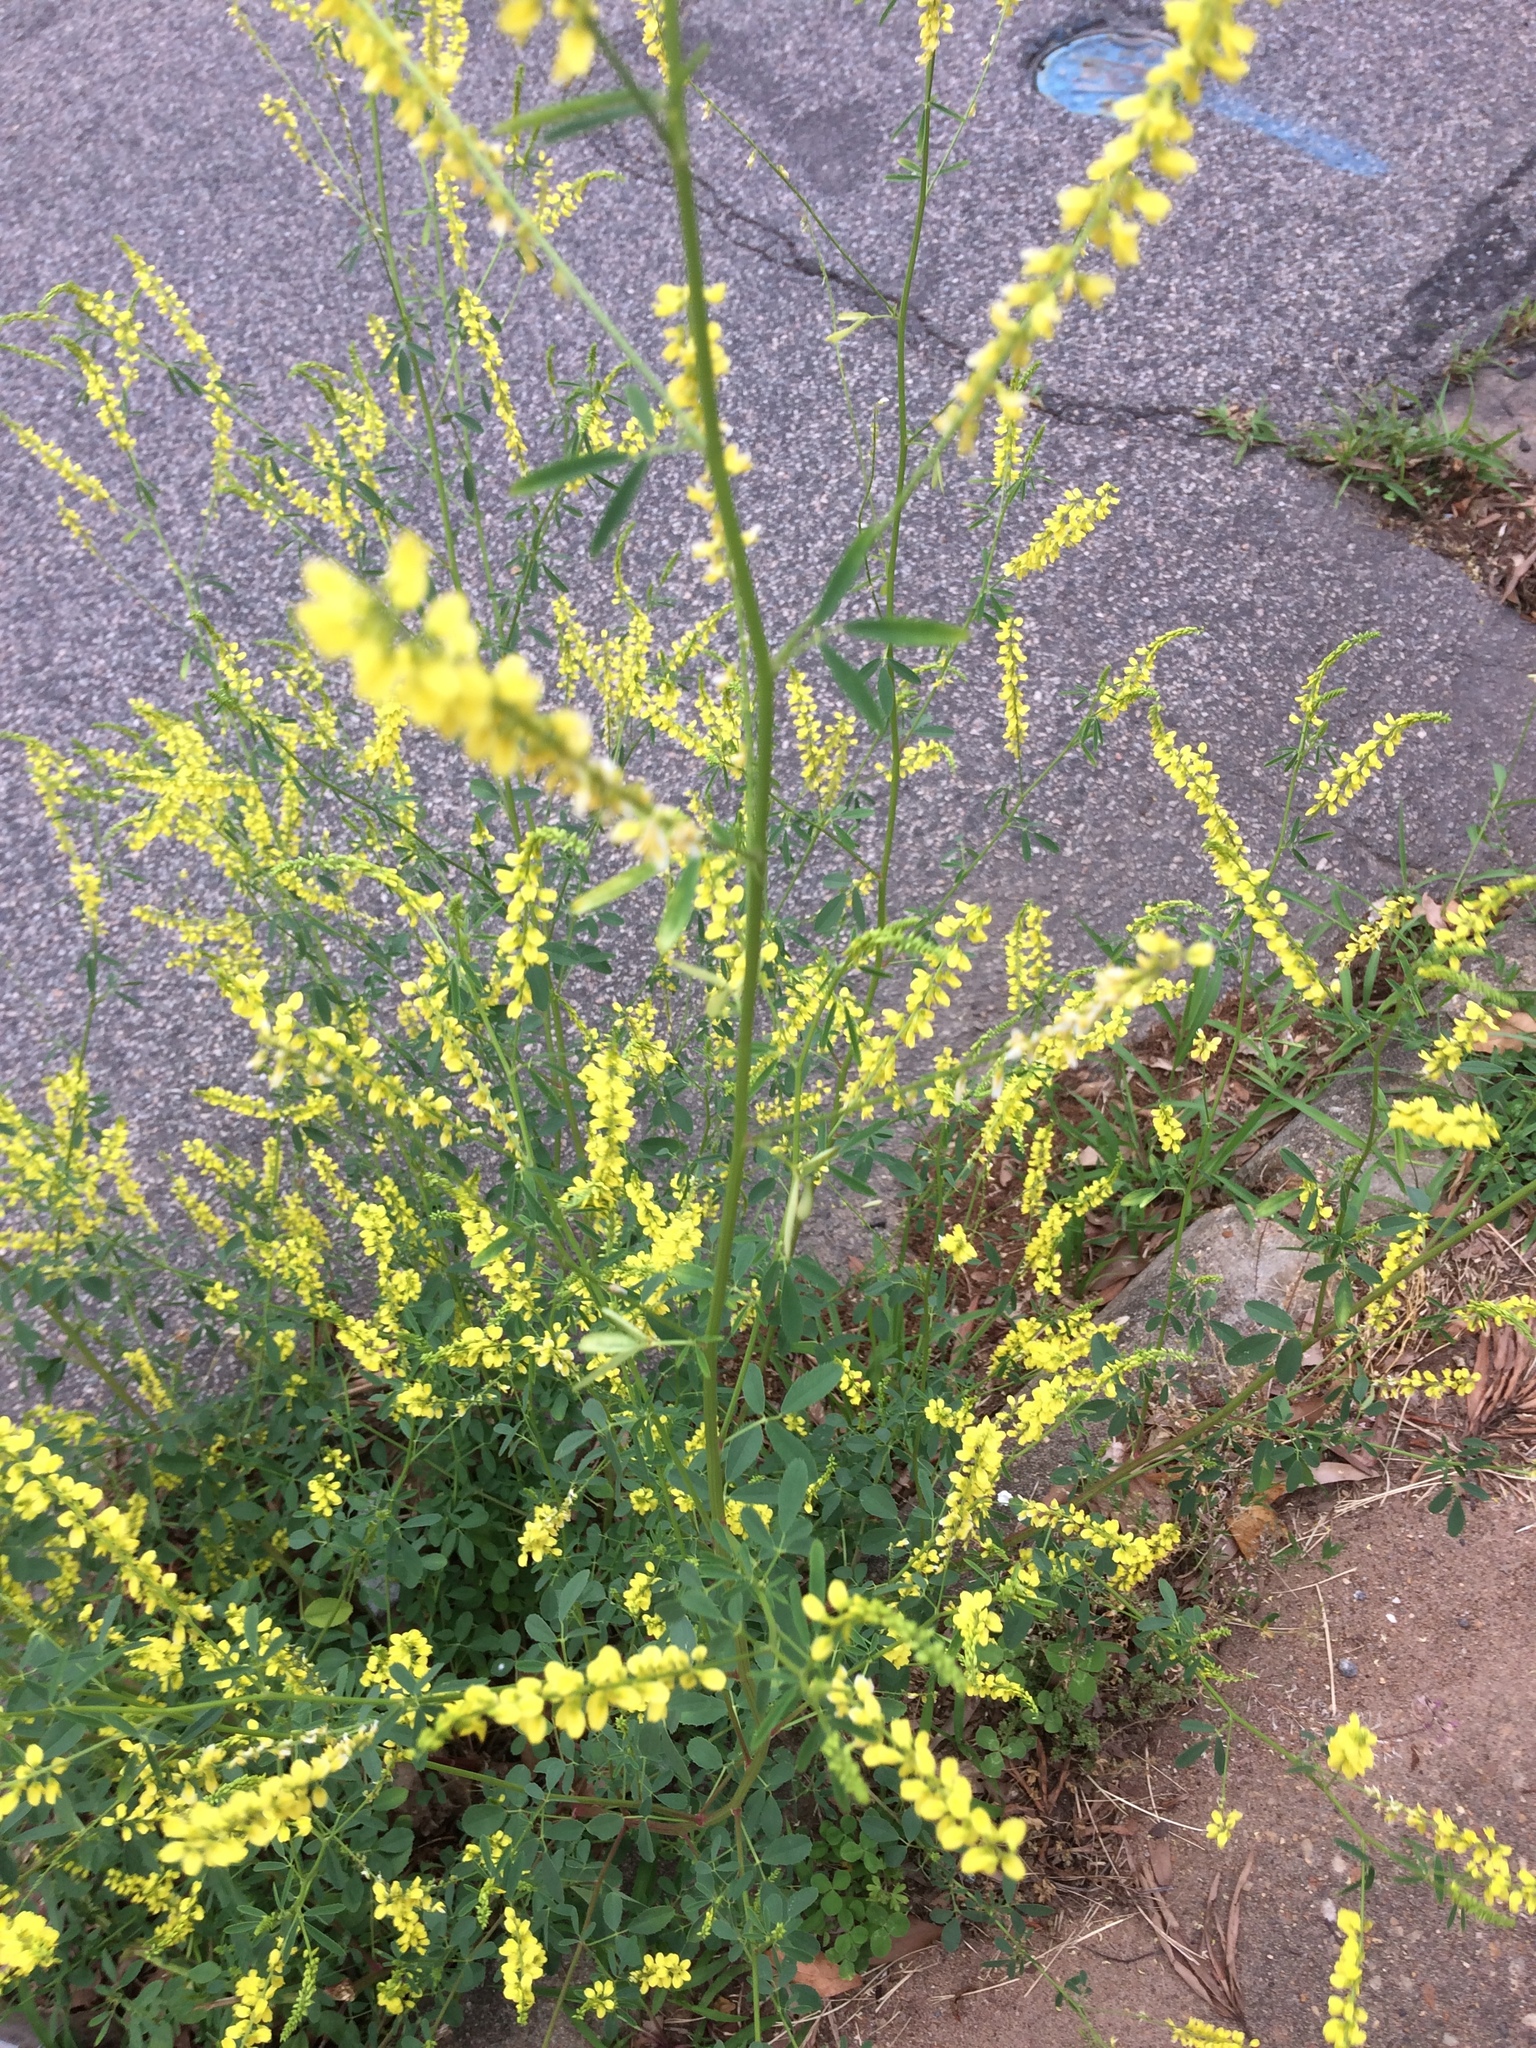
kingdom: Plantae
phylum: Tracheophyta
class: Magnoliopsida
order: Fabales
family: Fabaceae
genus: Melilotus
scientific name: Melilotus officinalis
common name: Sweetclover
